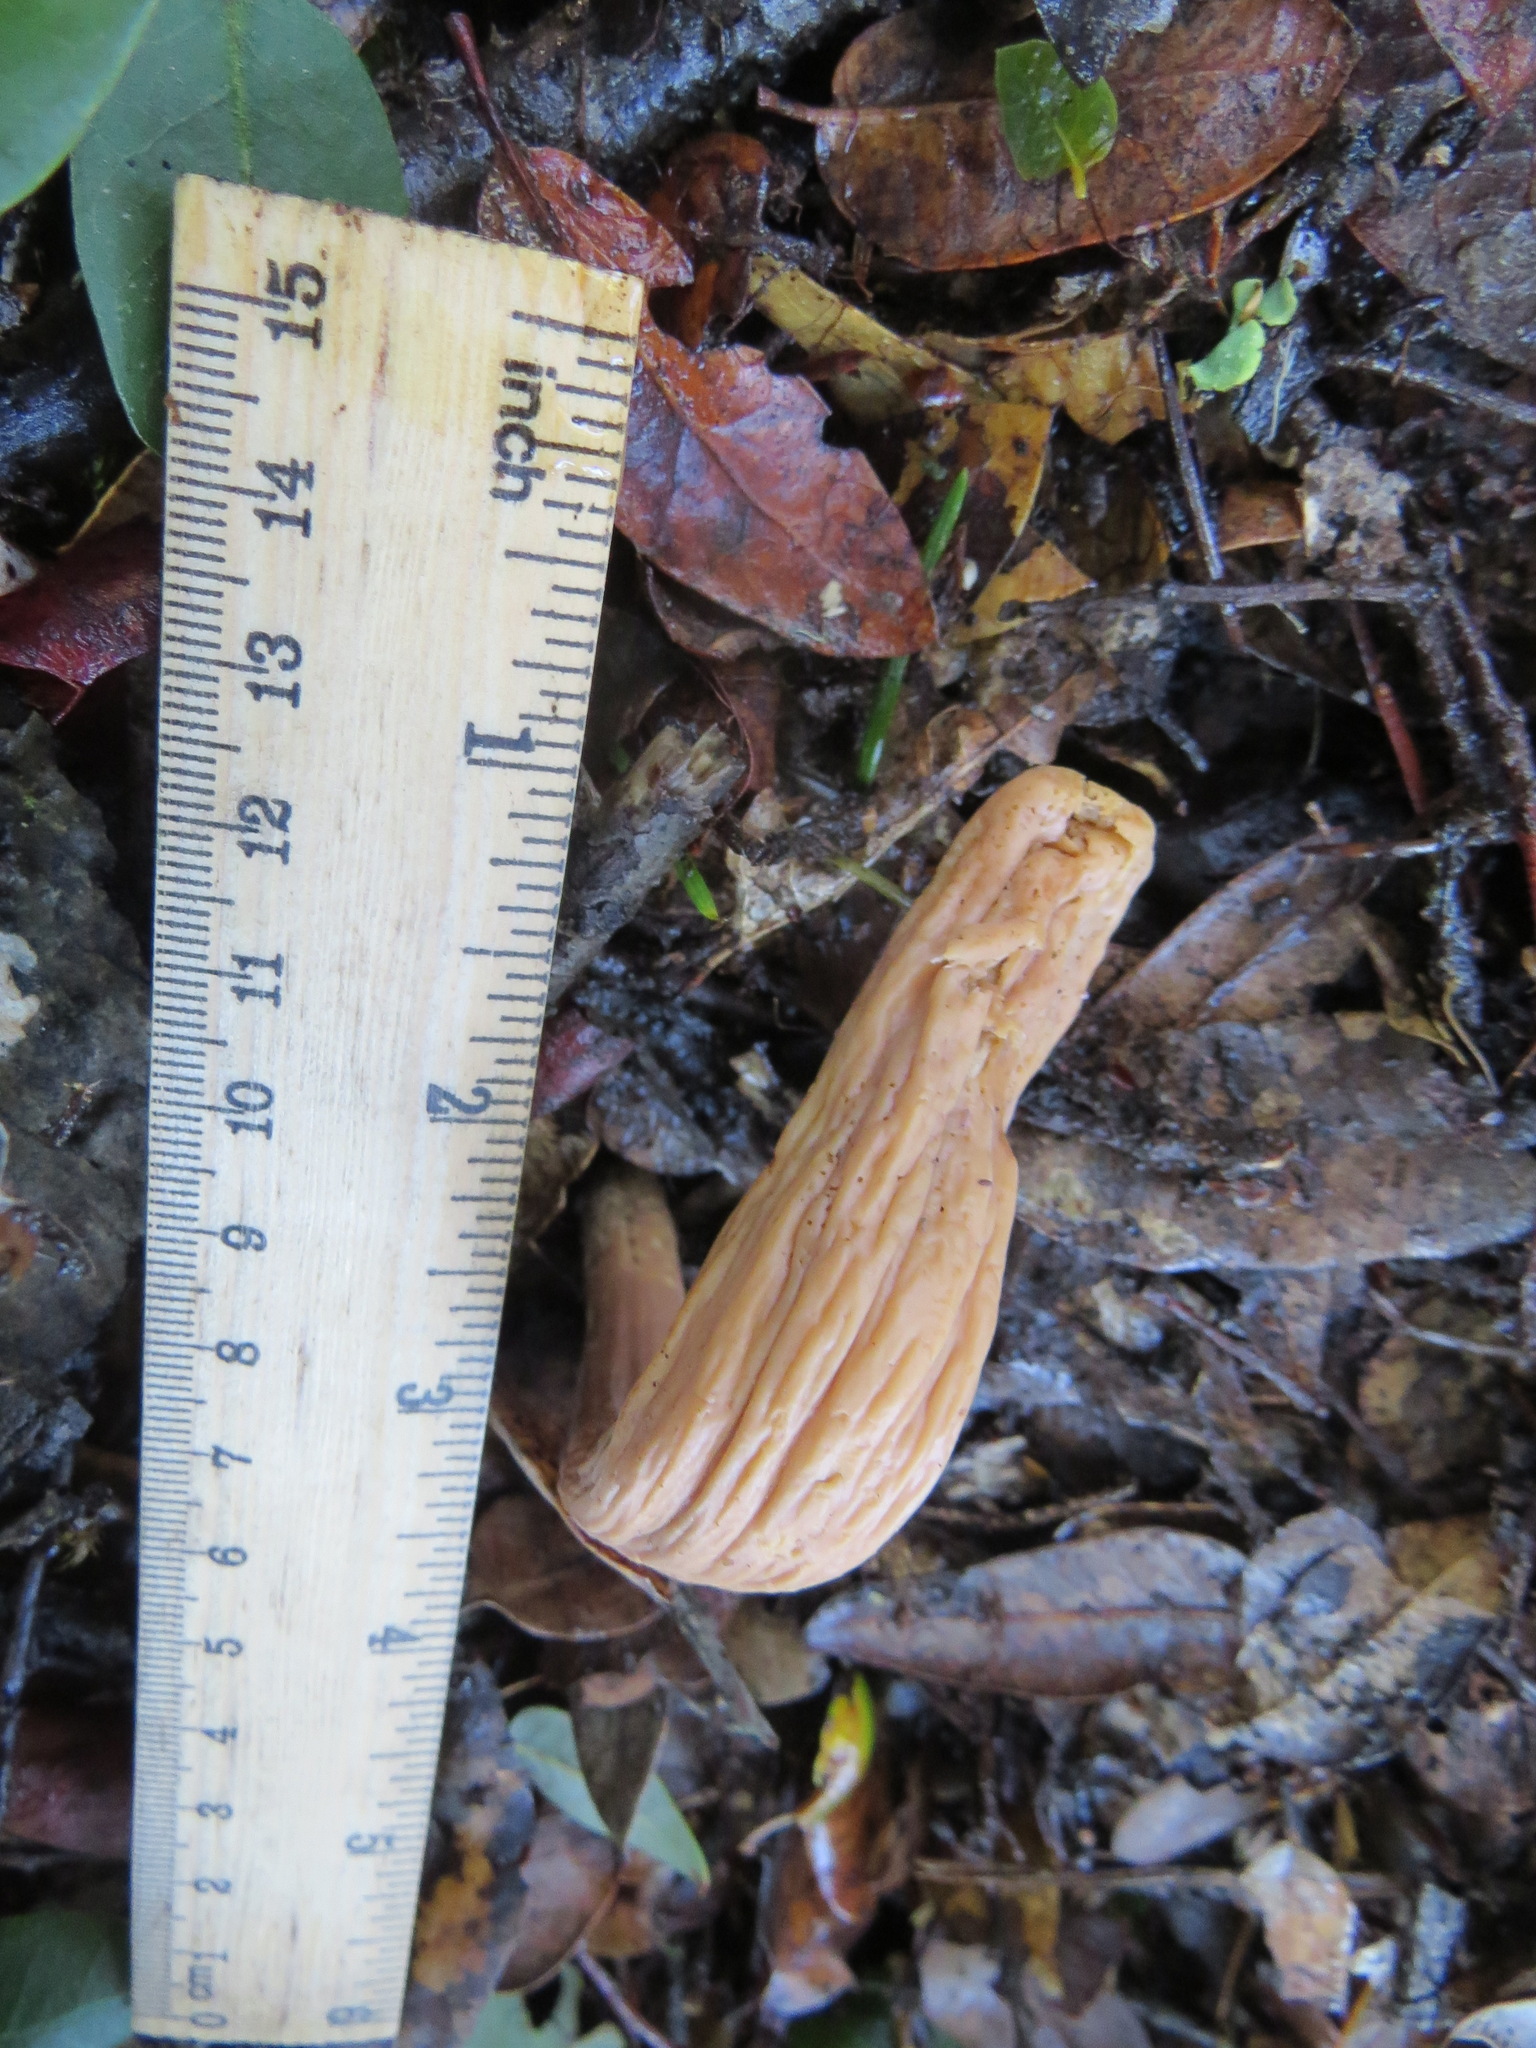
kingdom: Fungi
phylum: Basidiomycota
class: Agaricomycetes
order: Gomphales
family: Clavariadelphaceae
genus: Clavariadelphus
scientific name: Clavariadelphus occidentalis
